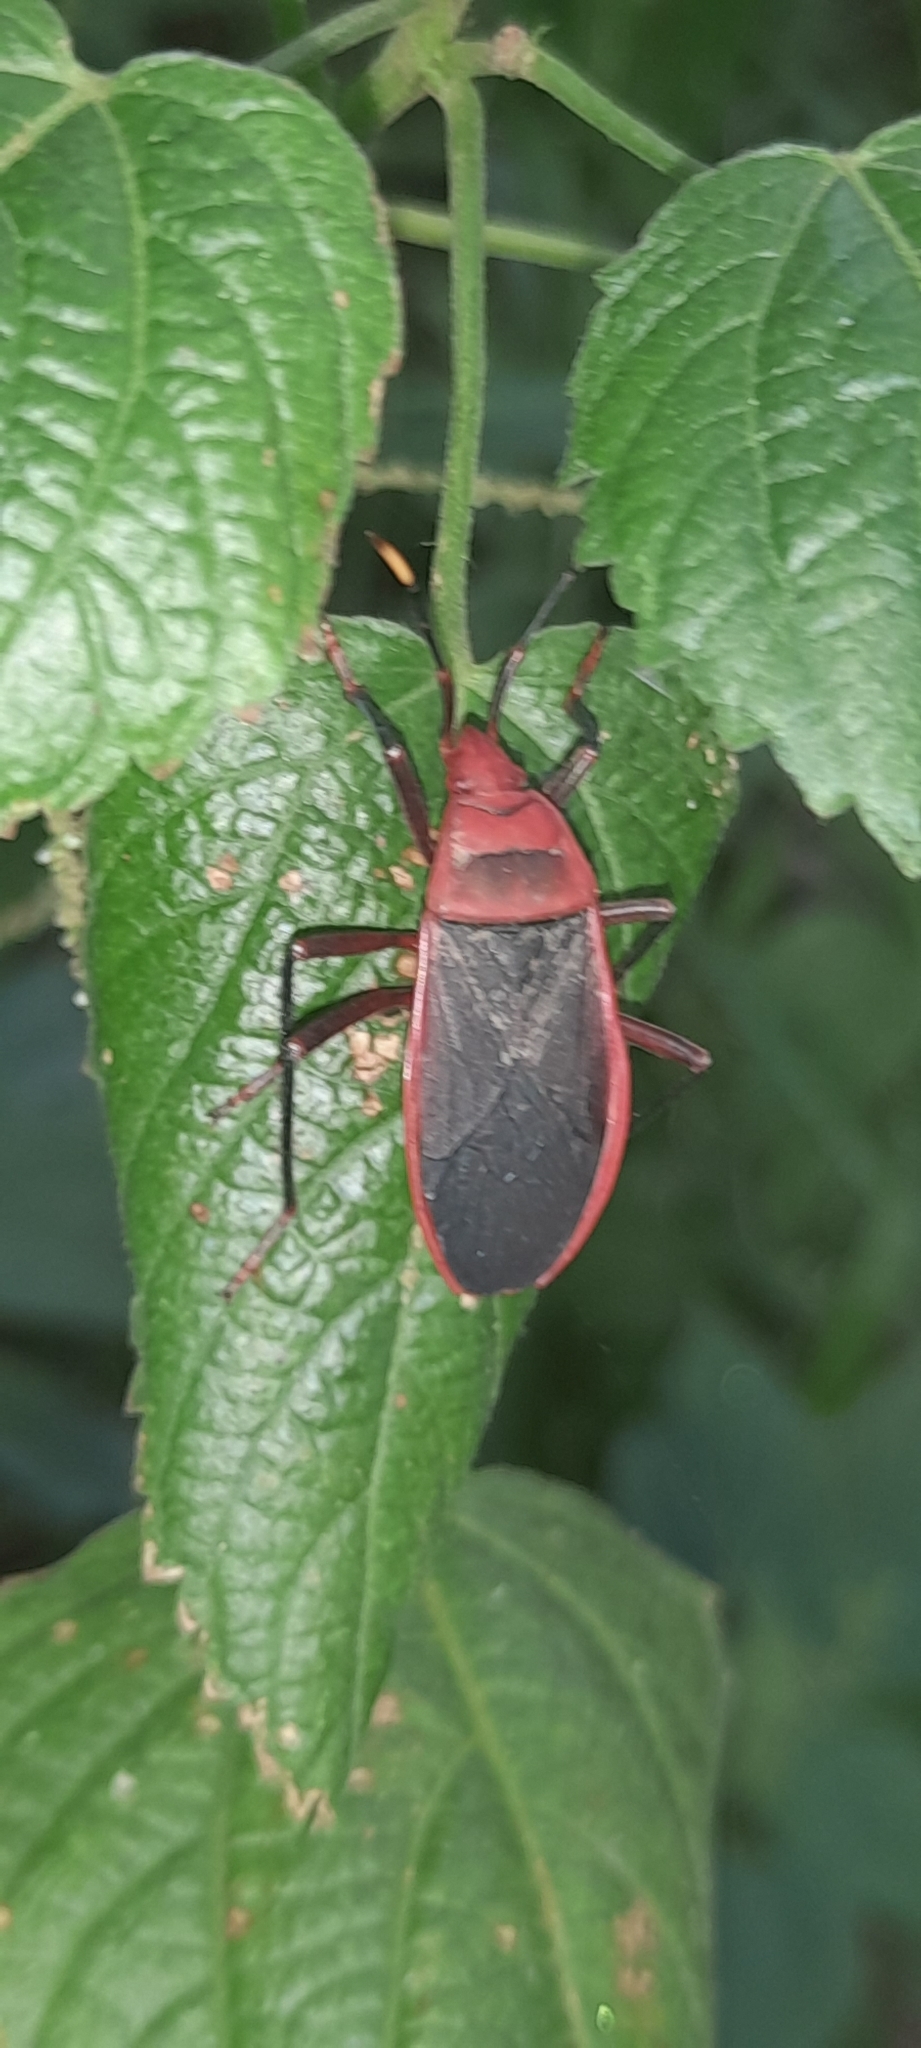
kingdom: Animalia
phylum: Arthropoda
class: Insecta
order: Hemiptera
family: Pyrrhocoridae
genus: Probergrothius
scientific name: Probergrothius
